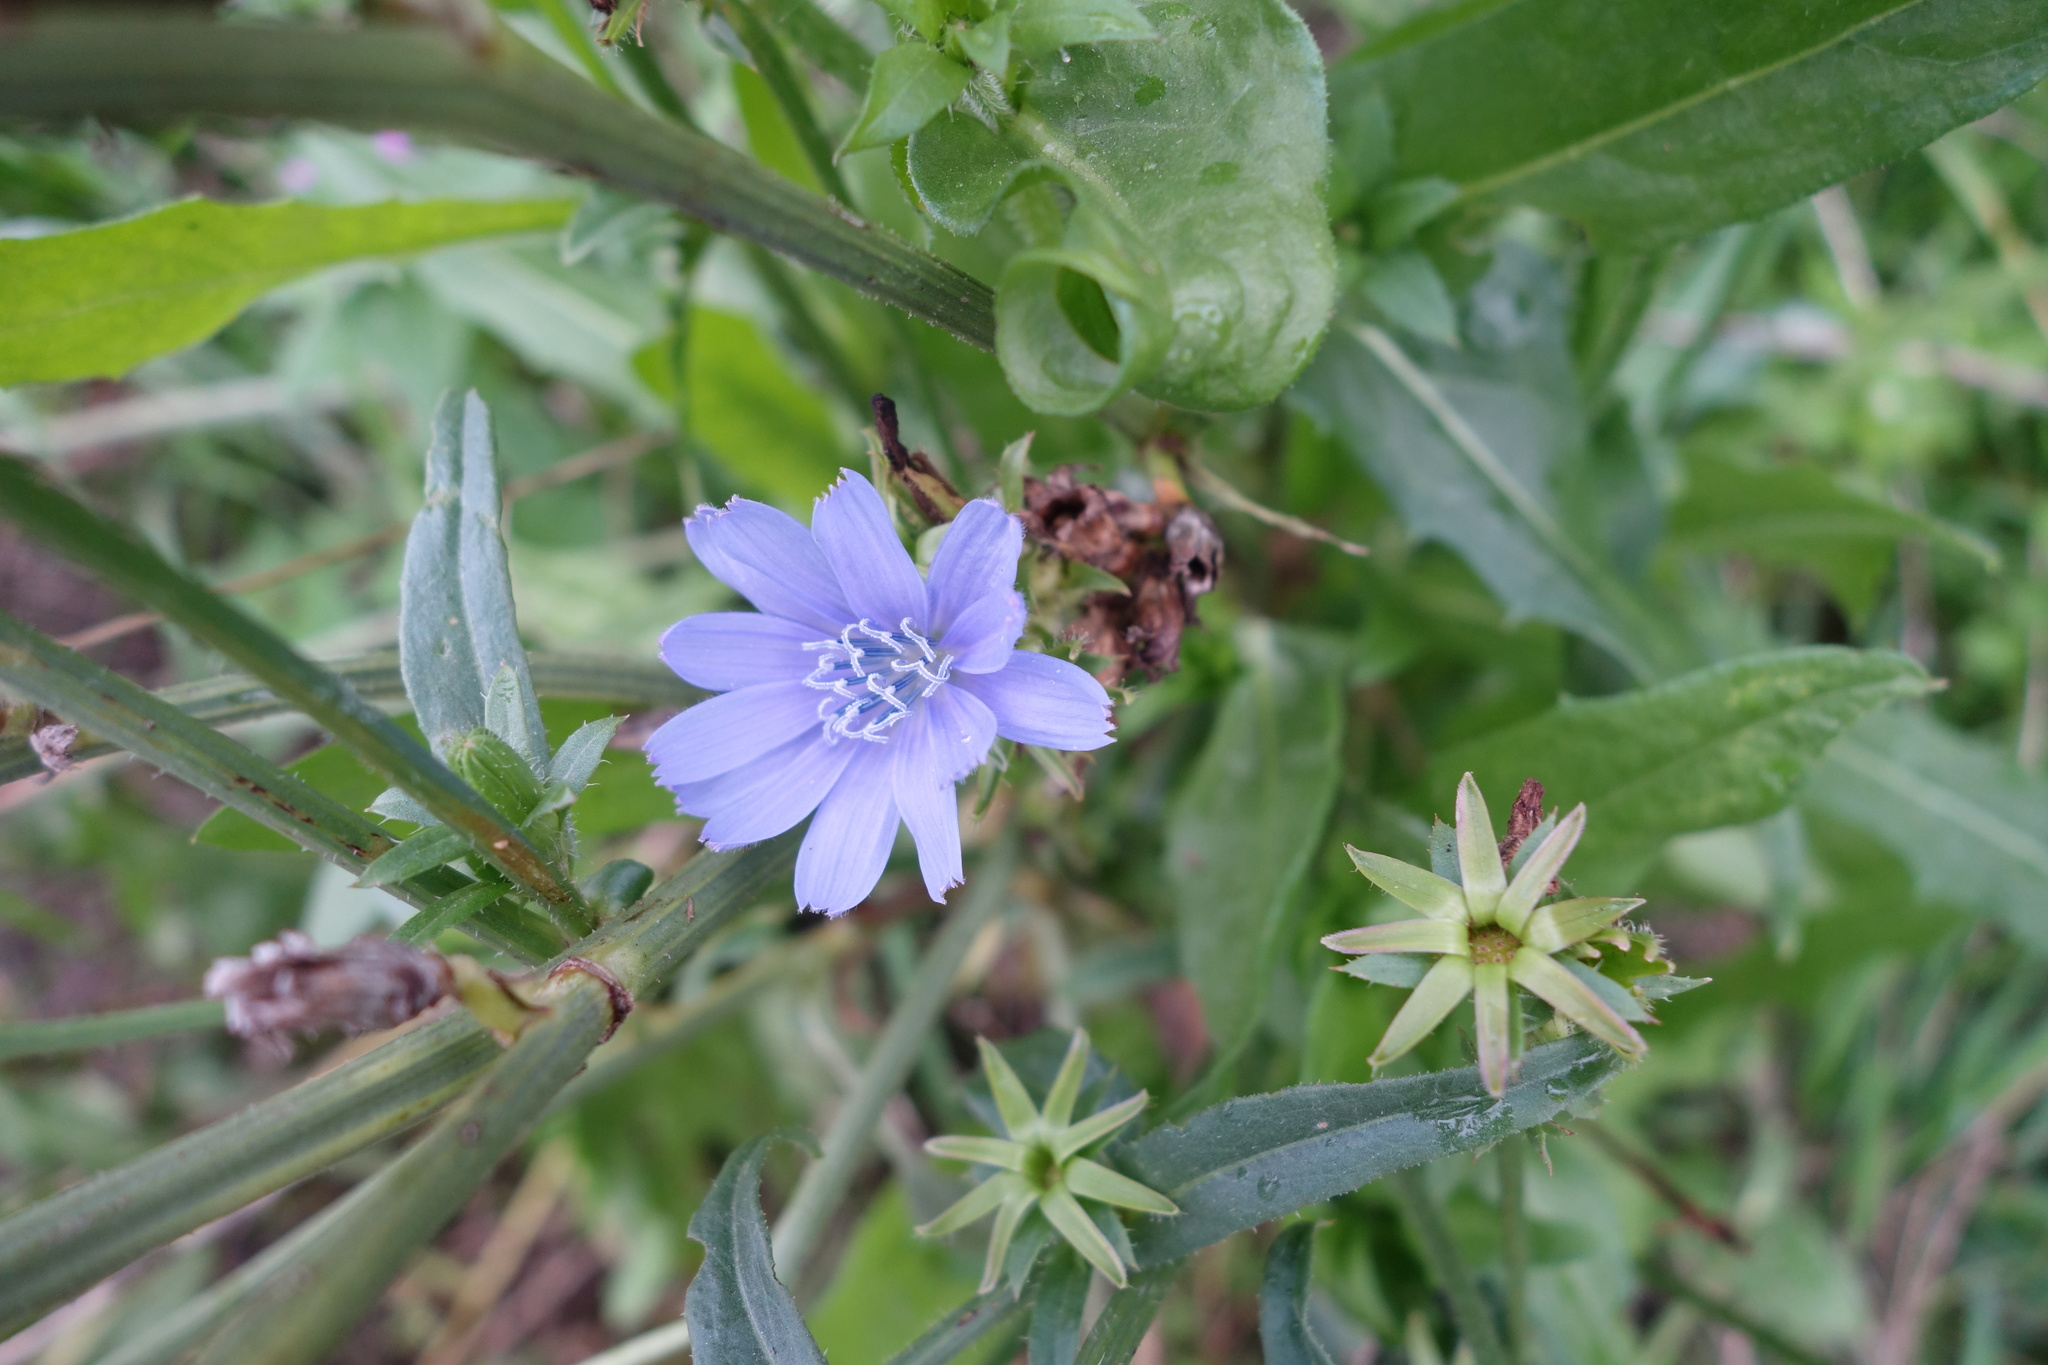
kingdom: Plantae
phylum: Tracheophyta
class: Magnoliopsida
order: Asterales
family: Asteraceae
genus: Cichorium
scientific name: Cichorium intybus
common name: Chicory
